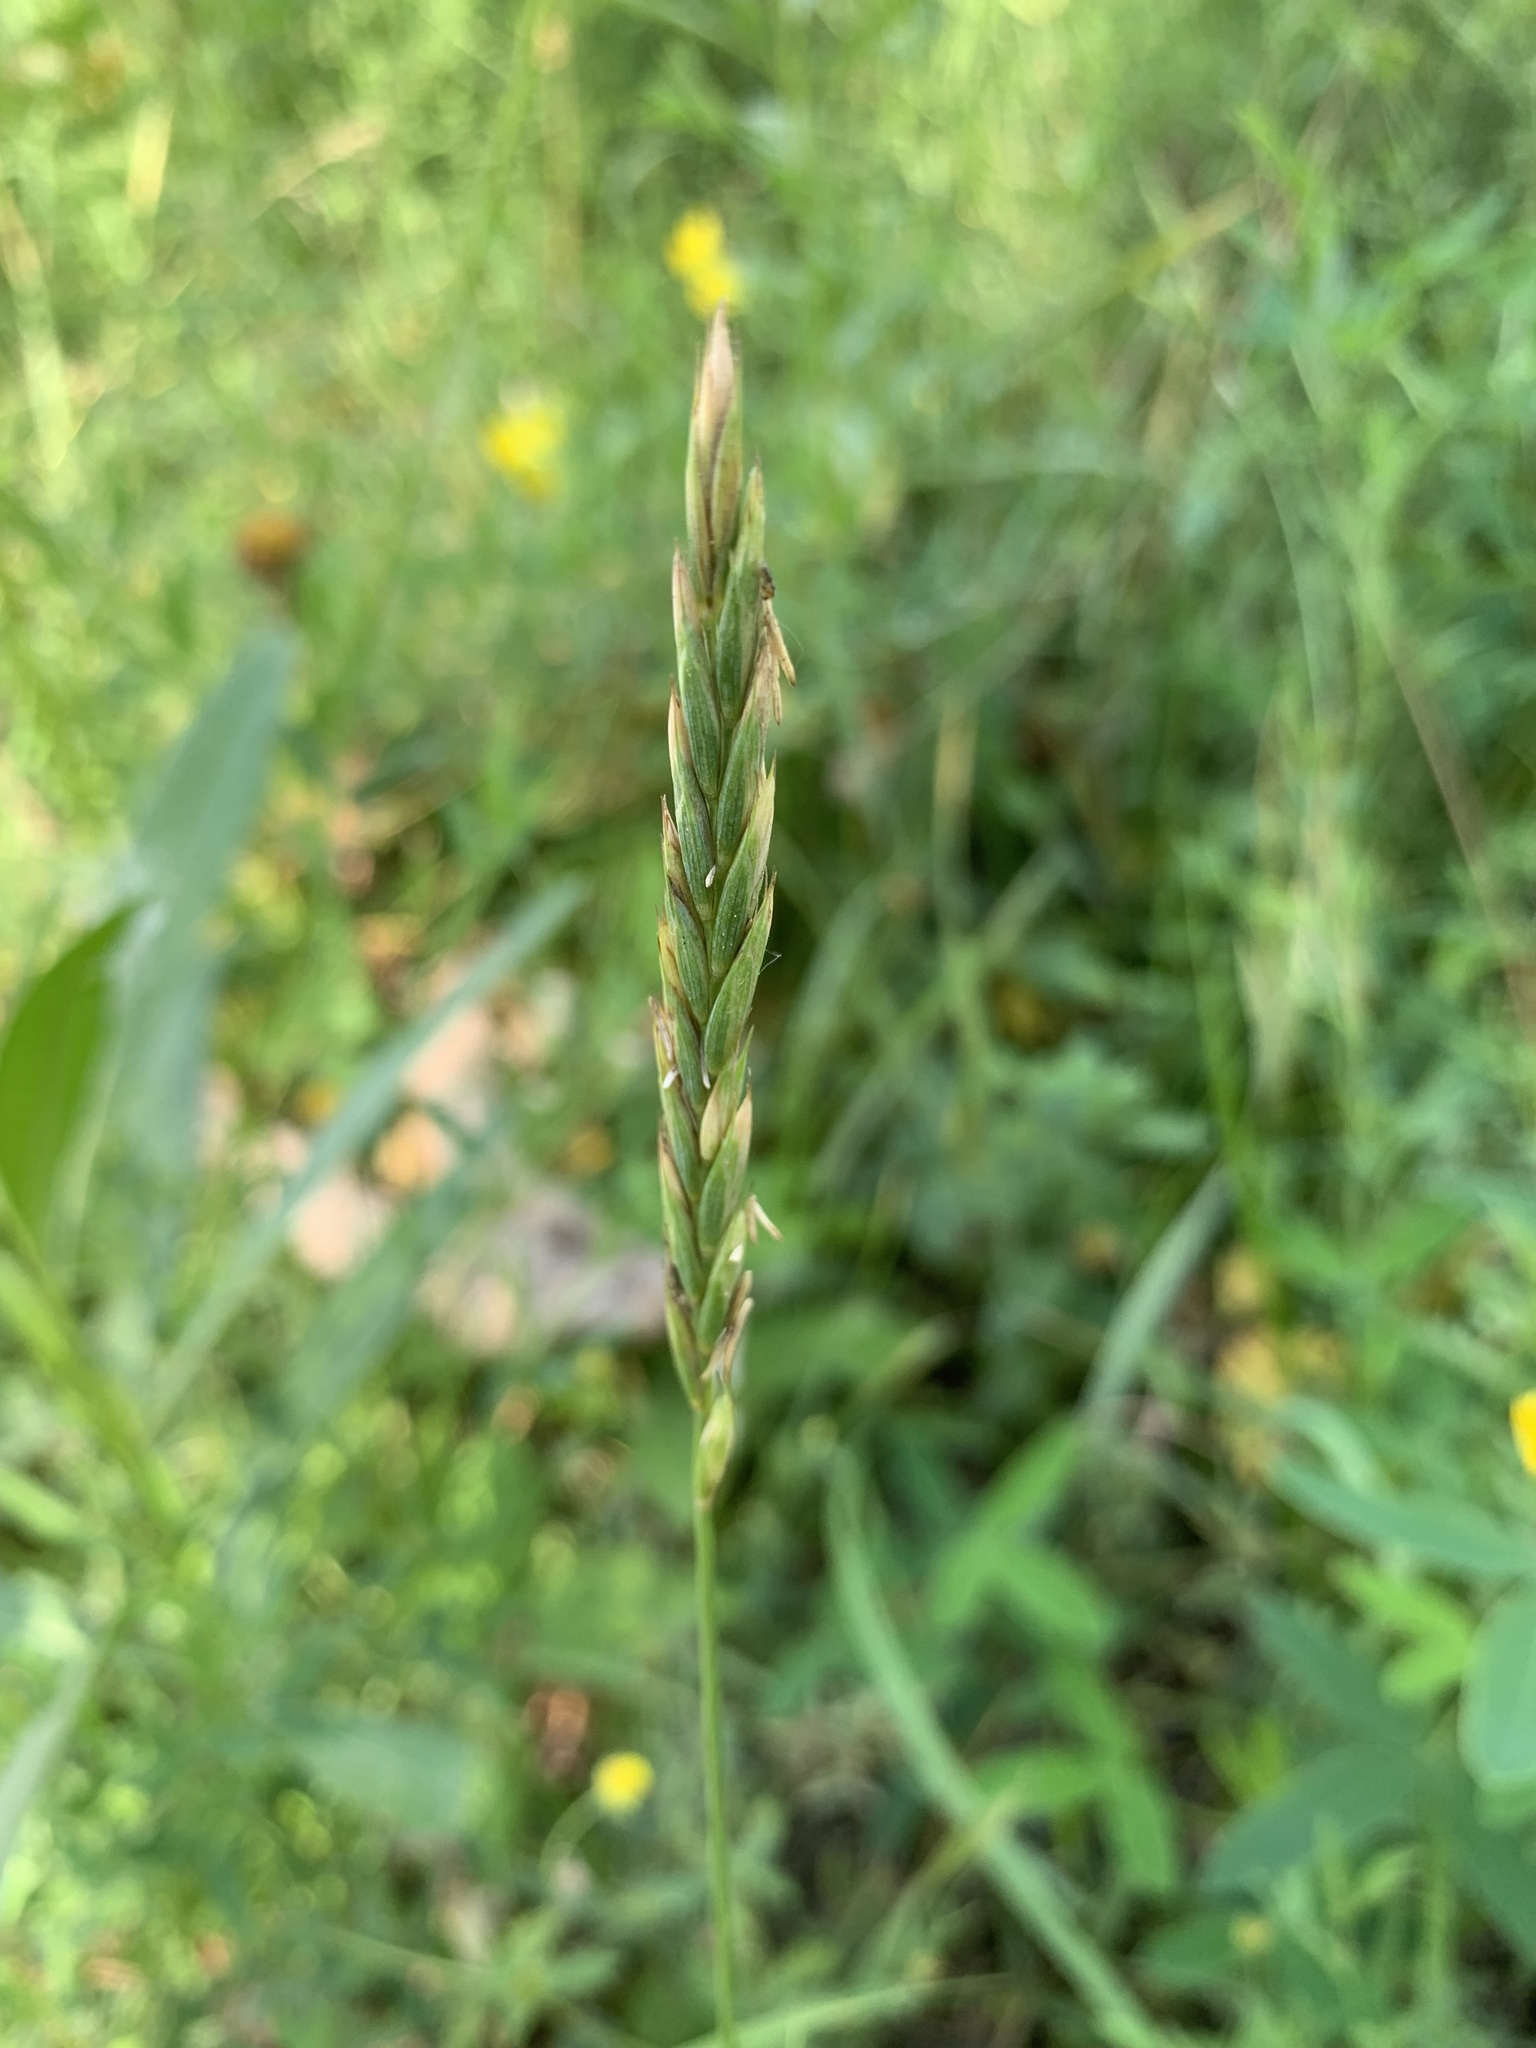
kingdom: Plantae
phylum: Tracheophyta
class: Liliopsida
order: Poales
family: Poaceae
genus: Elymus
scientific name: Elymus repens
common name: Quackgrass
